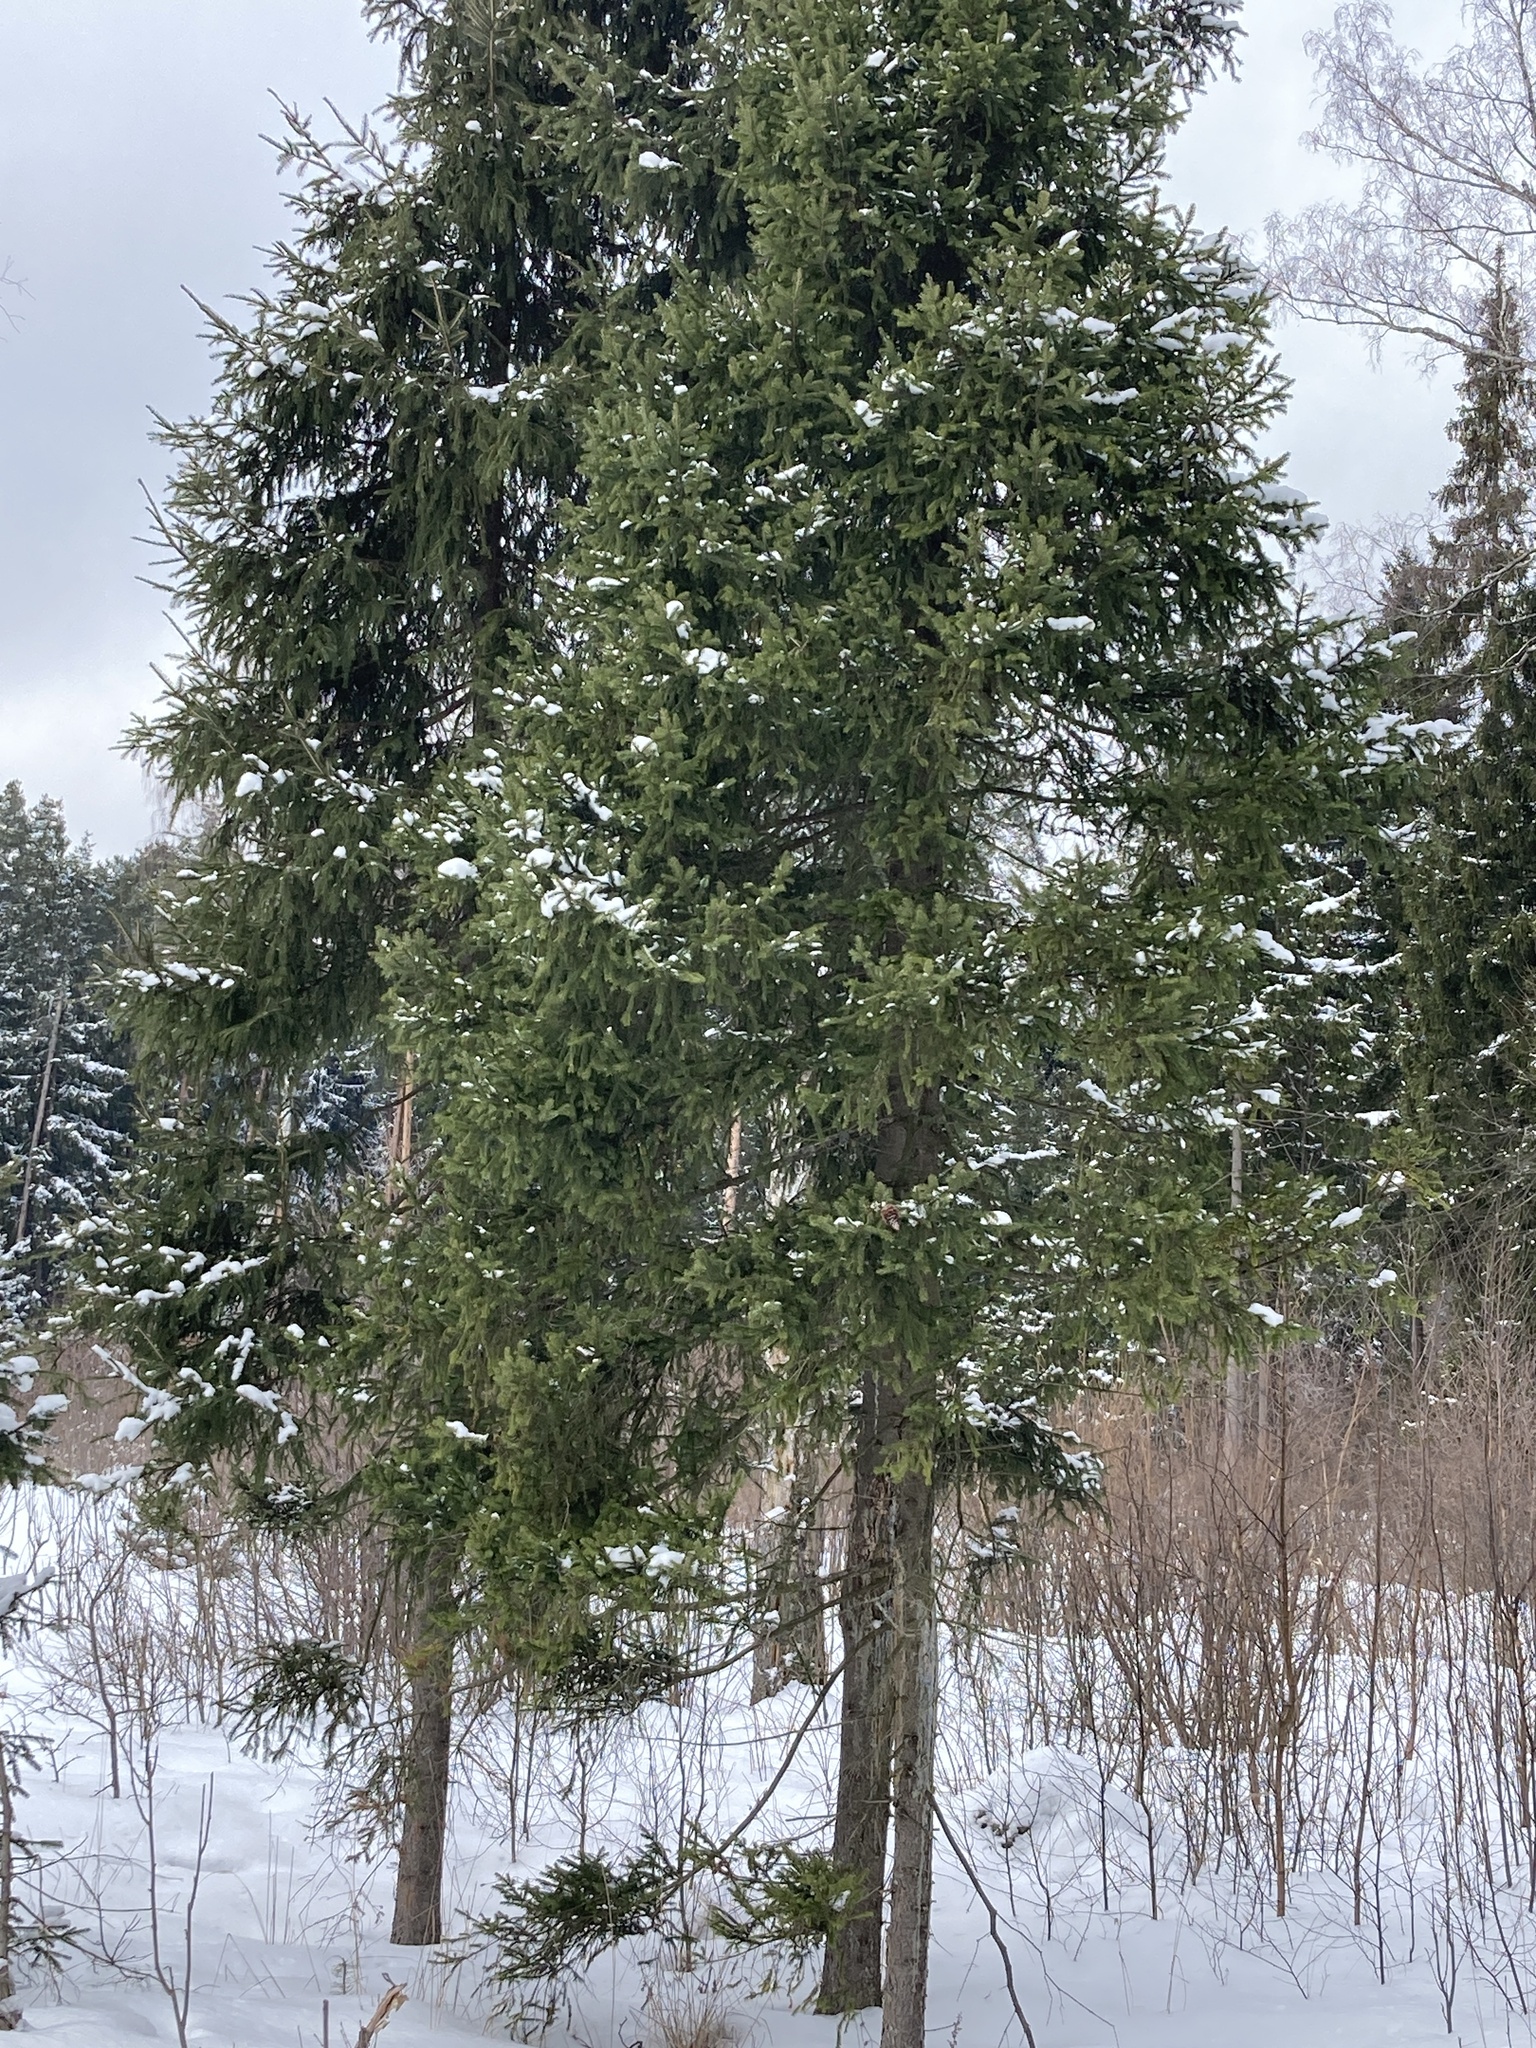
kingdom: Plantae
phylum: Tracheophyta
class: Pinopsida
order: Pinales
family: Pinaceae
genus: Picea
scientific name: Picea abies
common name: Norway spruce
